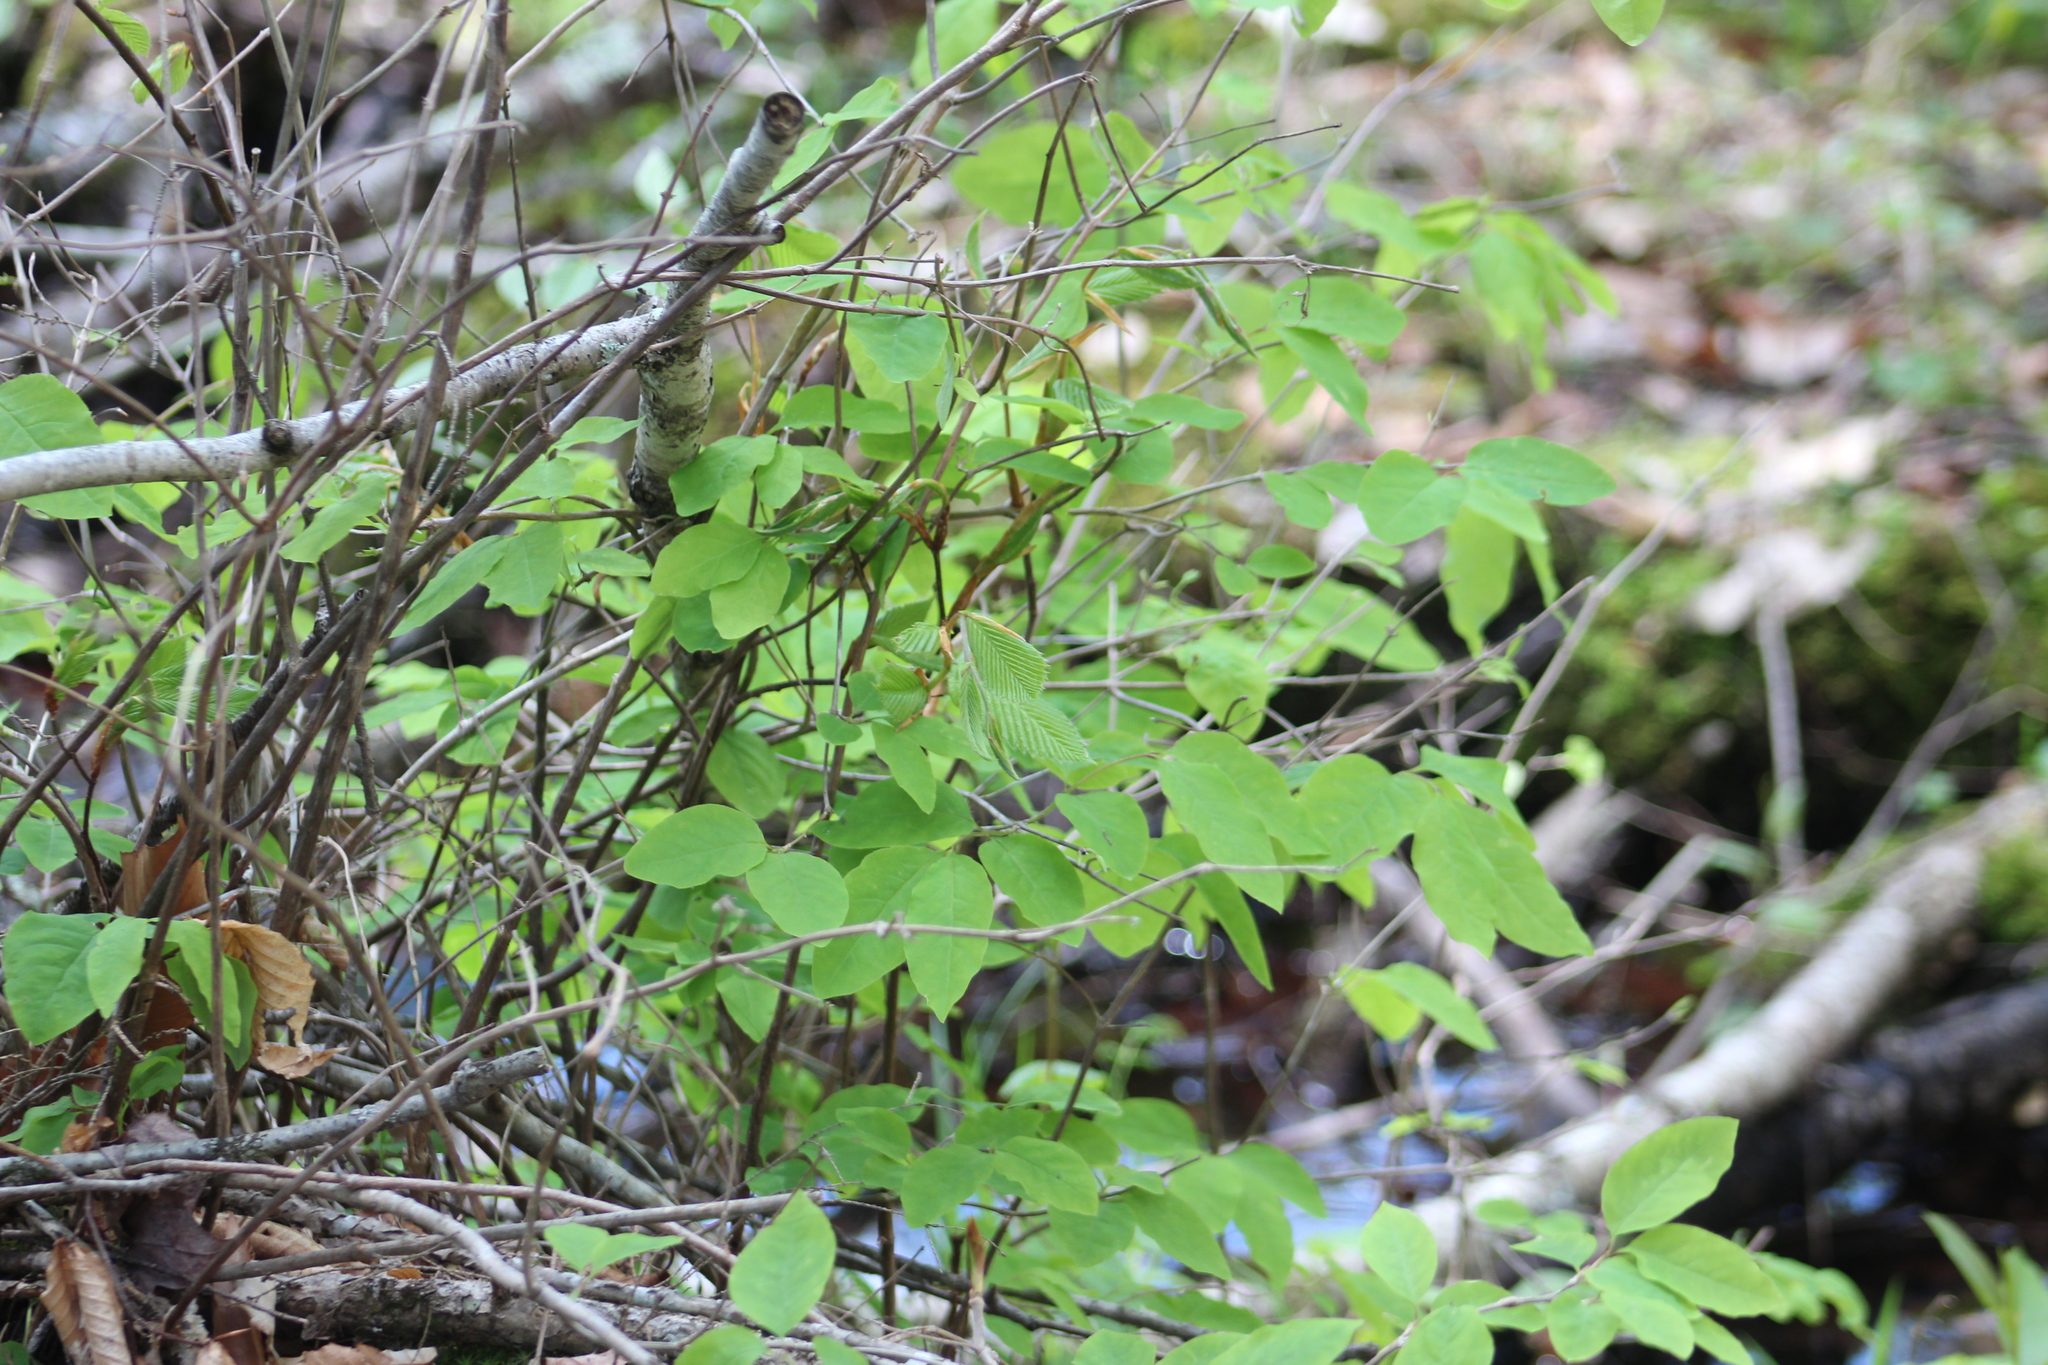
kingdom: Plantae
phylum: Tracheophyta
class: Magnoliopsida
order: Fagales
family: Fagaceae
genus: Fagus
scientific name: Fagus grandifolia
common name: American beech
